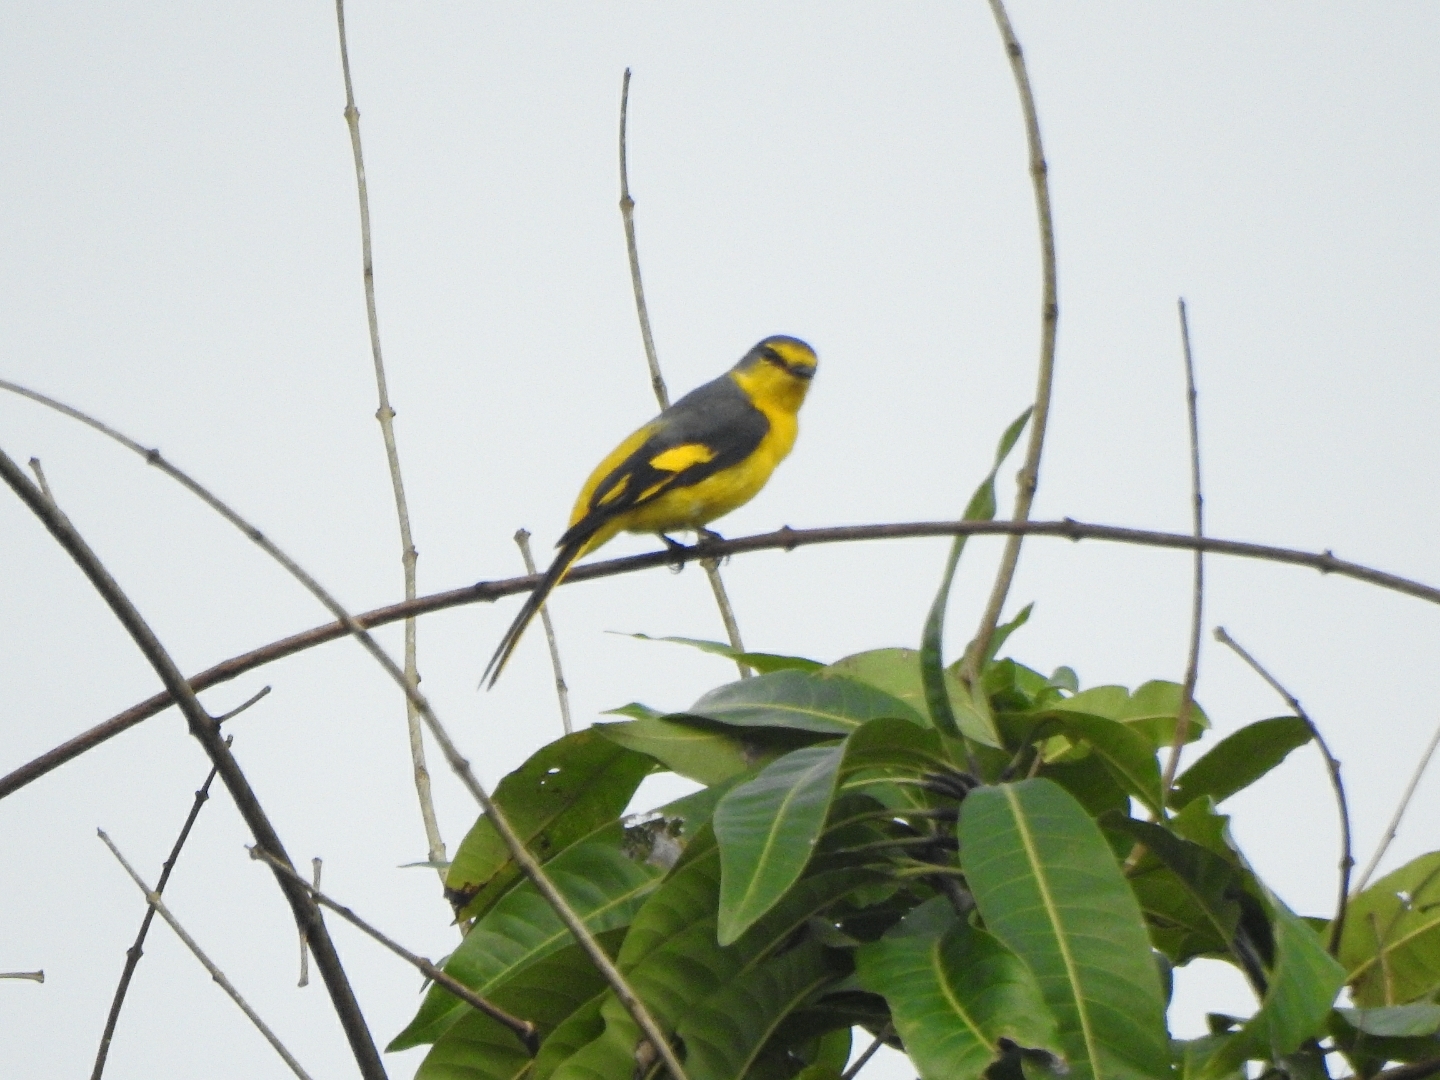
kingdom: Animalia
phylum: Chordata
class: Aves
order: Passeriformes
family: Campephagidae
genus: Pericrocotus
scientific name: Pericrocotus flammeus
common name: Orange minivet
